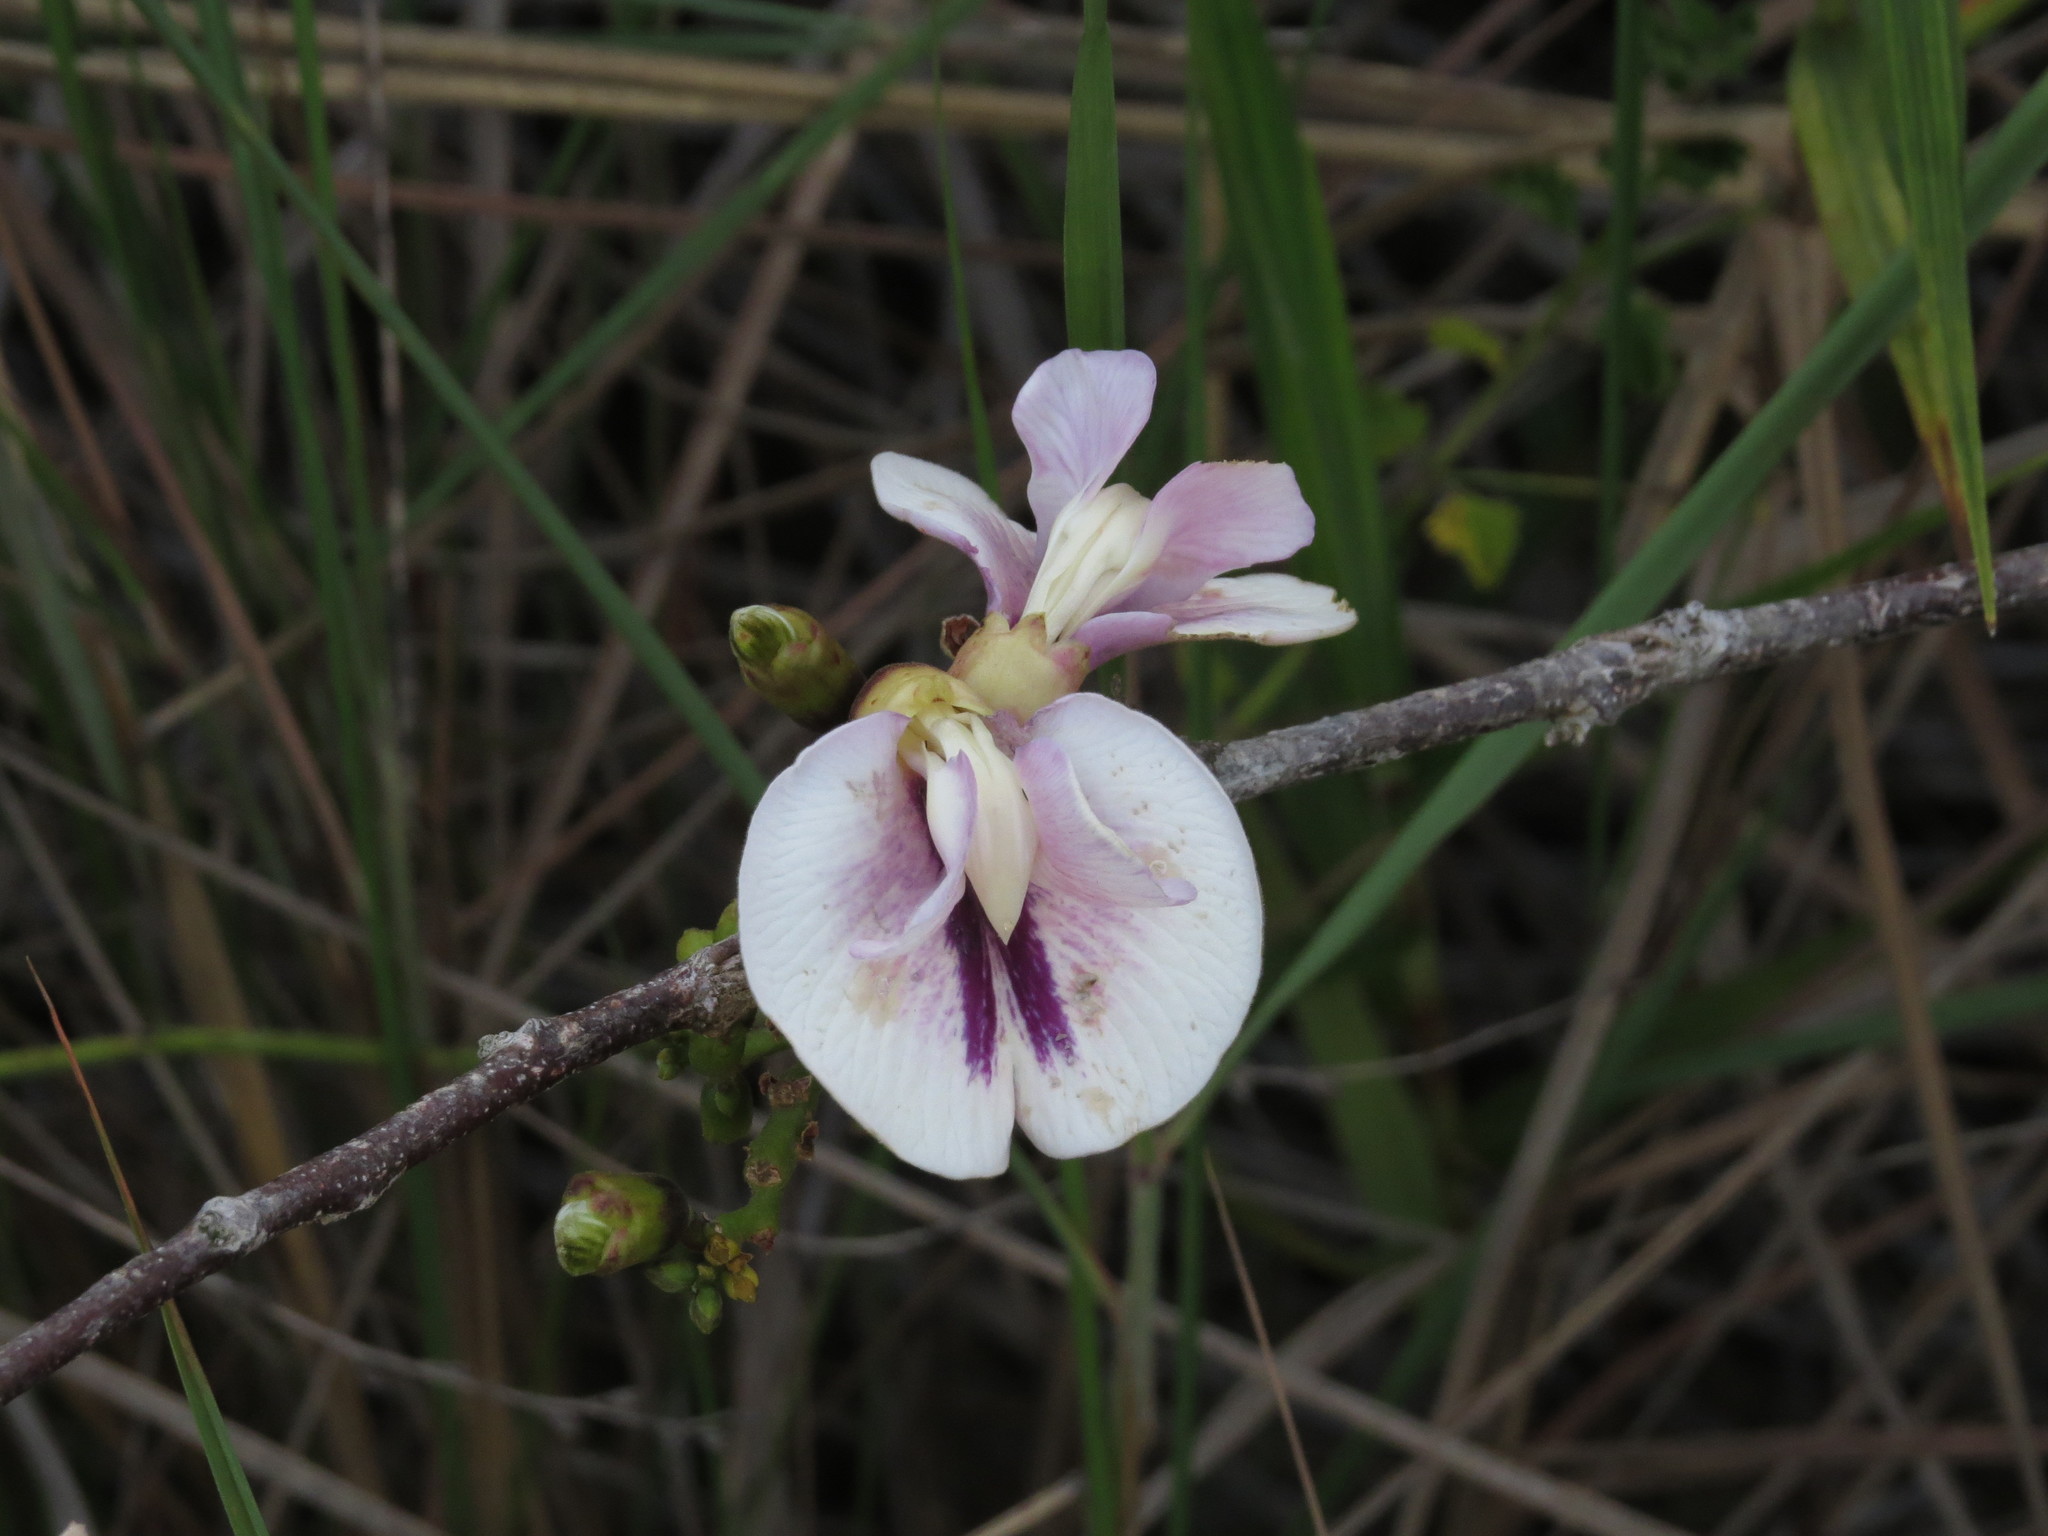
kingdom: Plantae
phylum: Tracheophyta
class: Magnoliopsida
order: Fabales
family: Fabaceae
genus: Clitoria
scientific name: Clitoria brachycalyx
